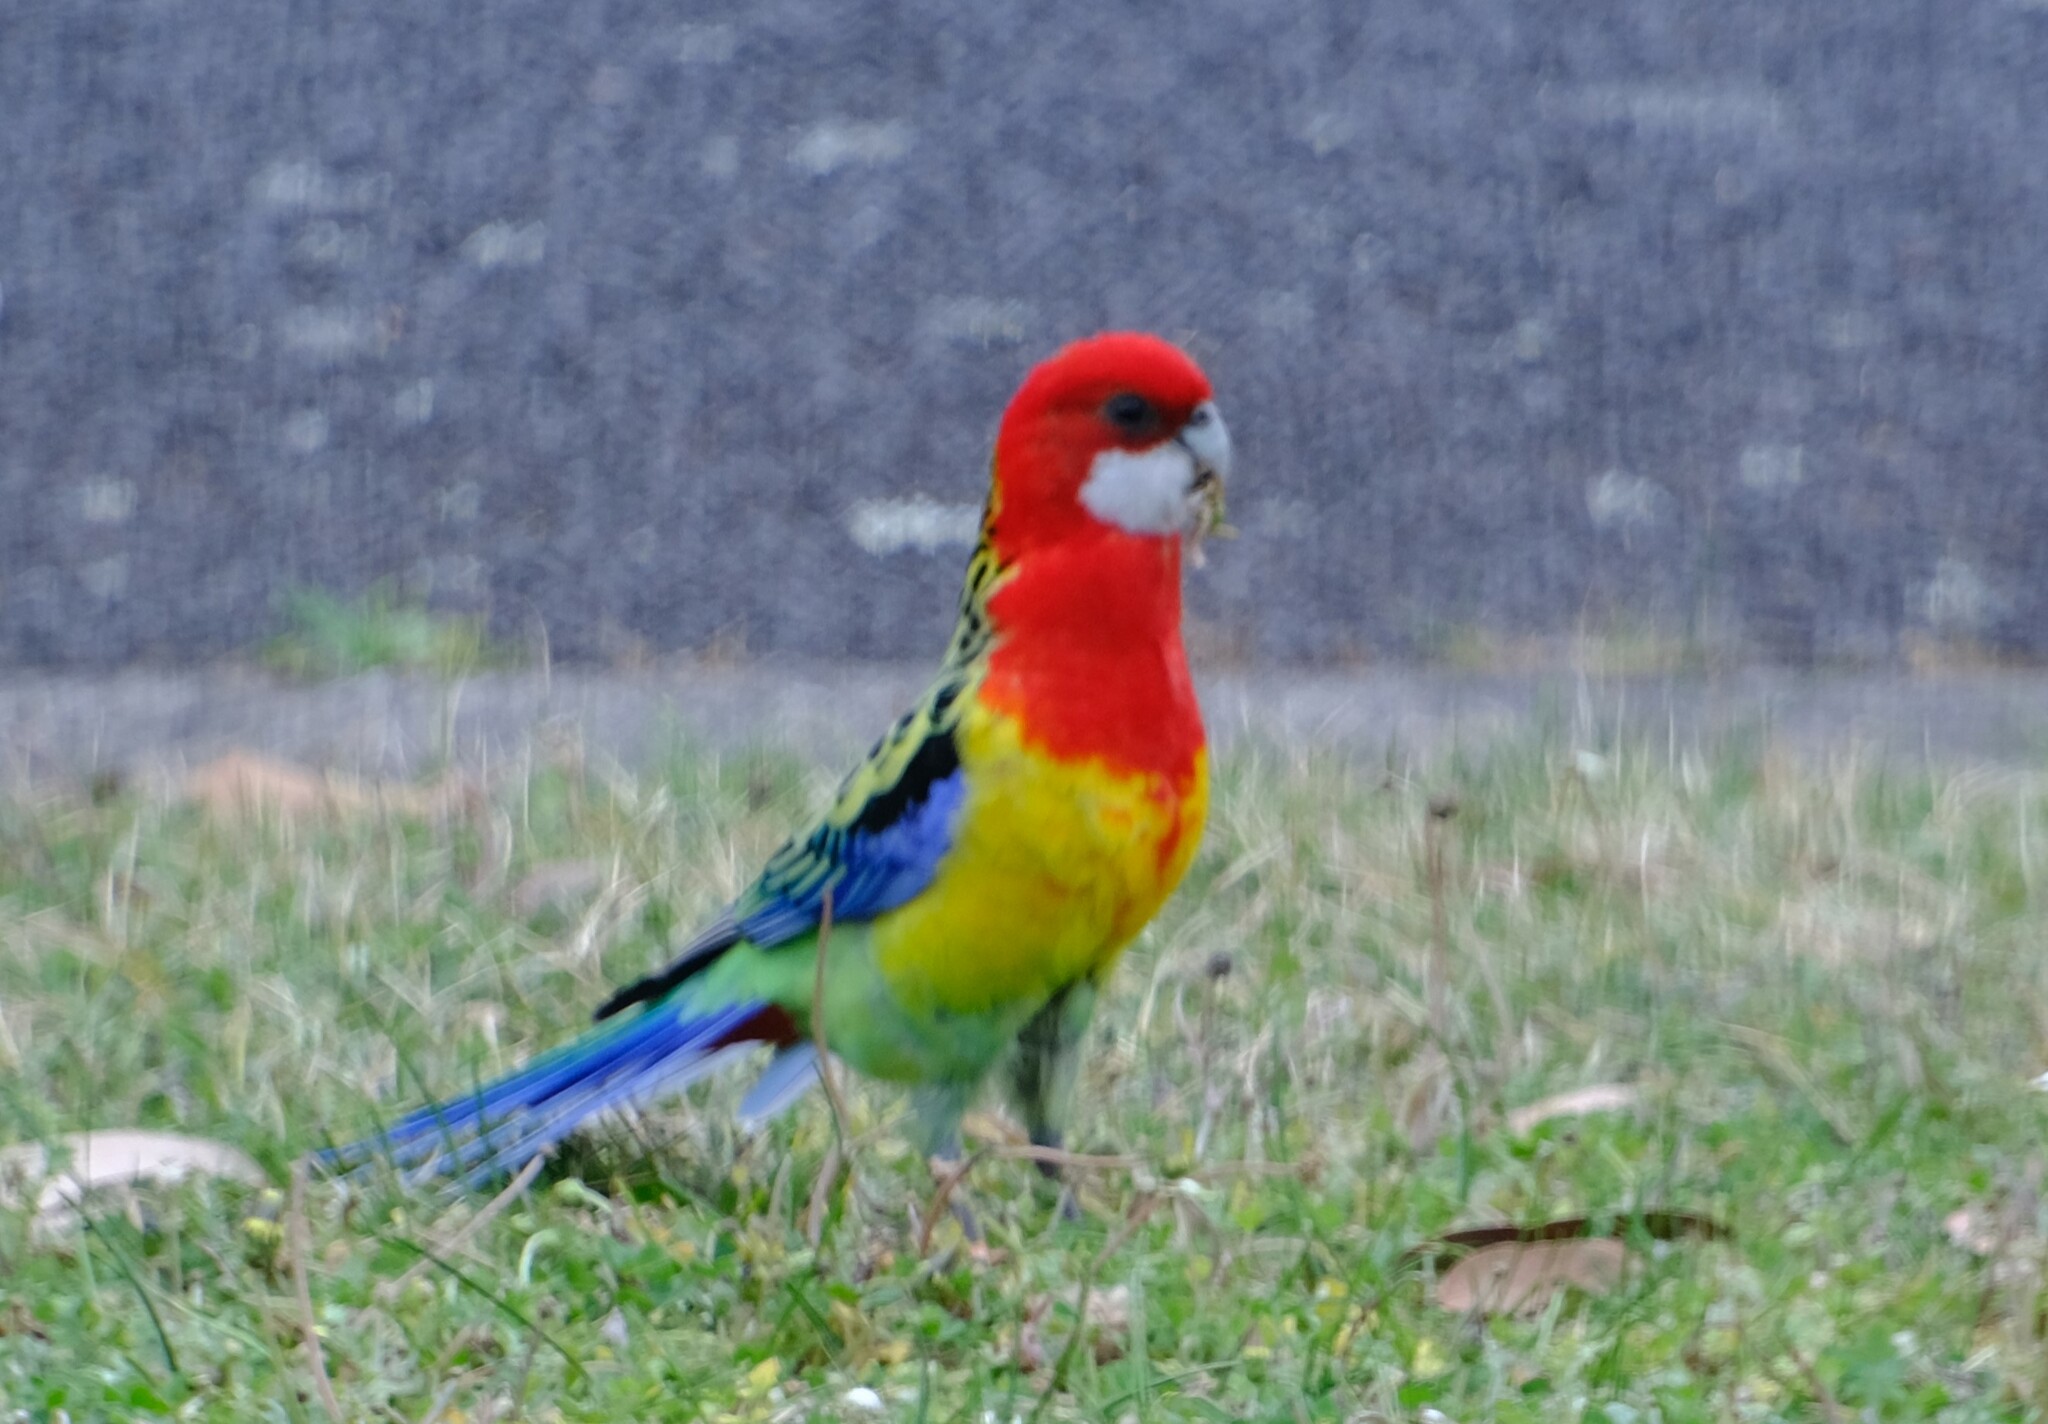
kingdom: Animalia
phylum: Chordata
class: Aves
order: Psittaciformes
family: Psittacidae
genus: Platycercus
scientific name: Platycercus eximius
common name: Eastern rosella
